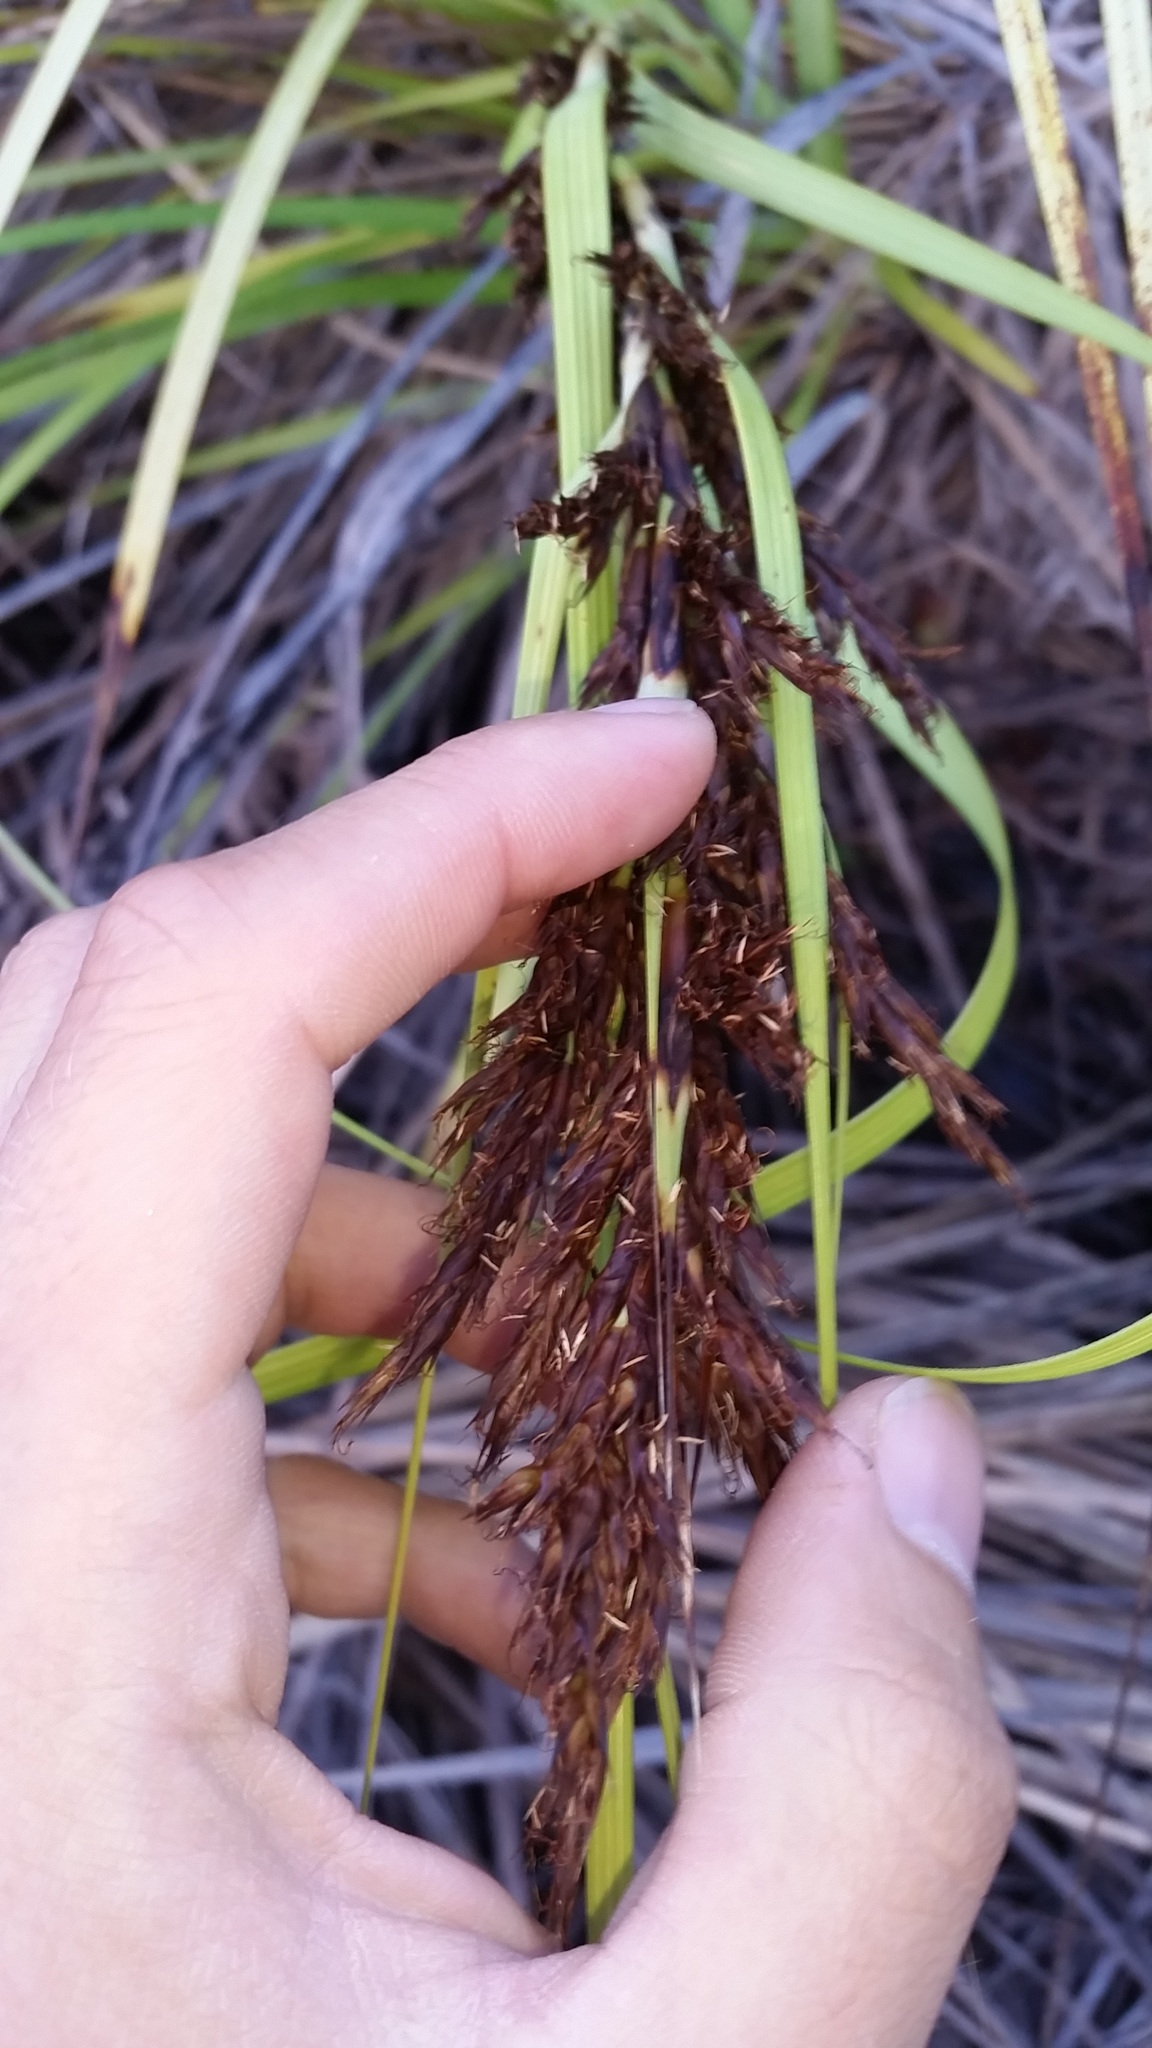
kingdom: Plantae
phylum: Tracheophyta
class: Liliopsida
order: Poales
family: Cyperaceae
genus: Gahnia
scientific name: Gahnia beecheyi
